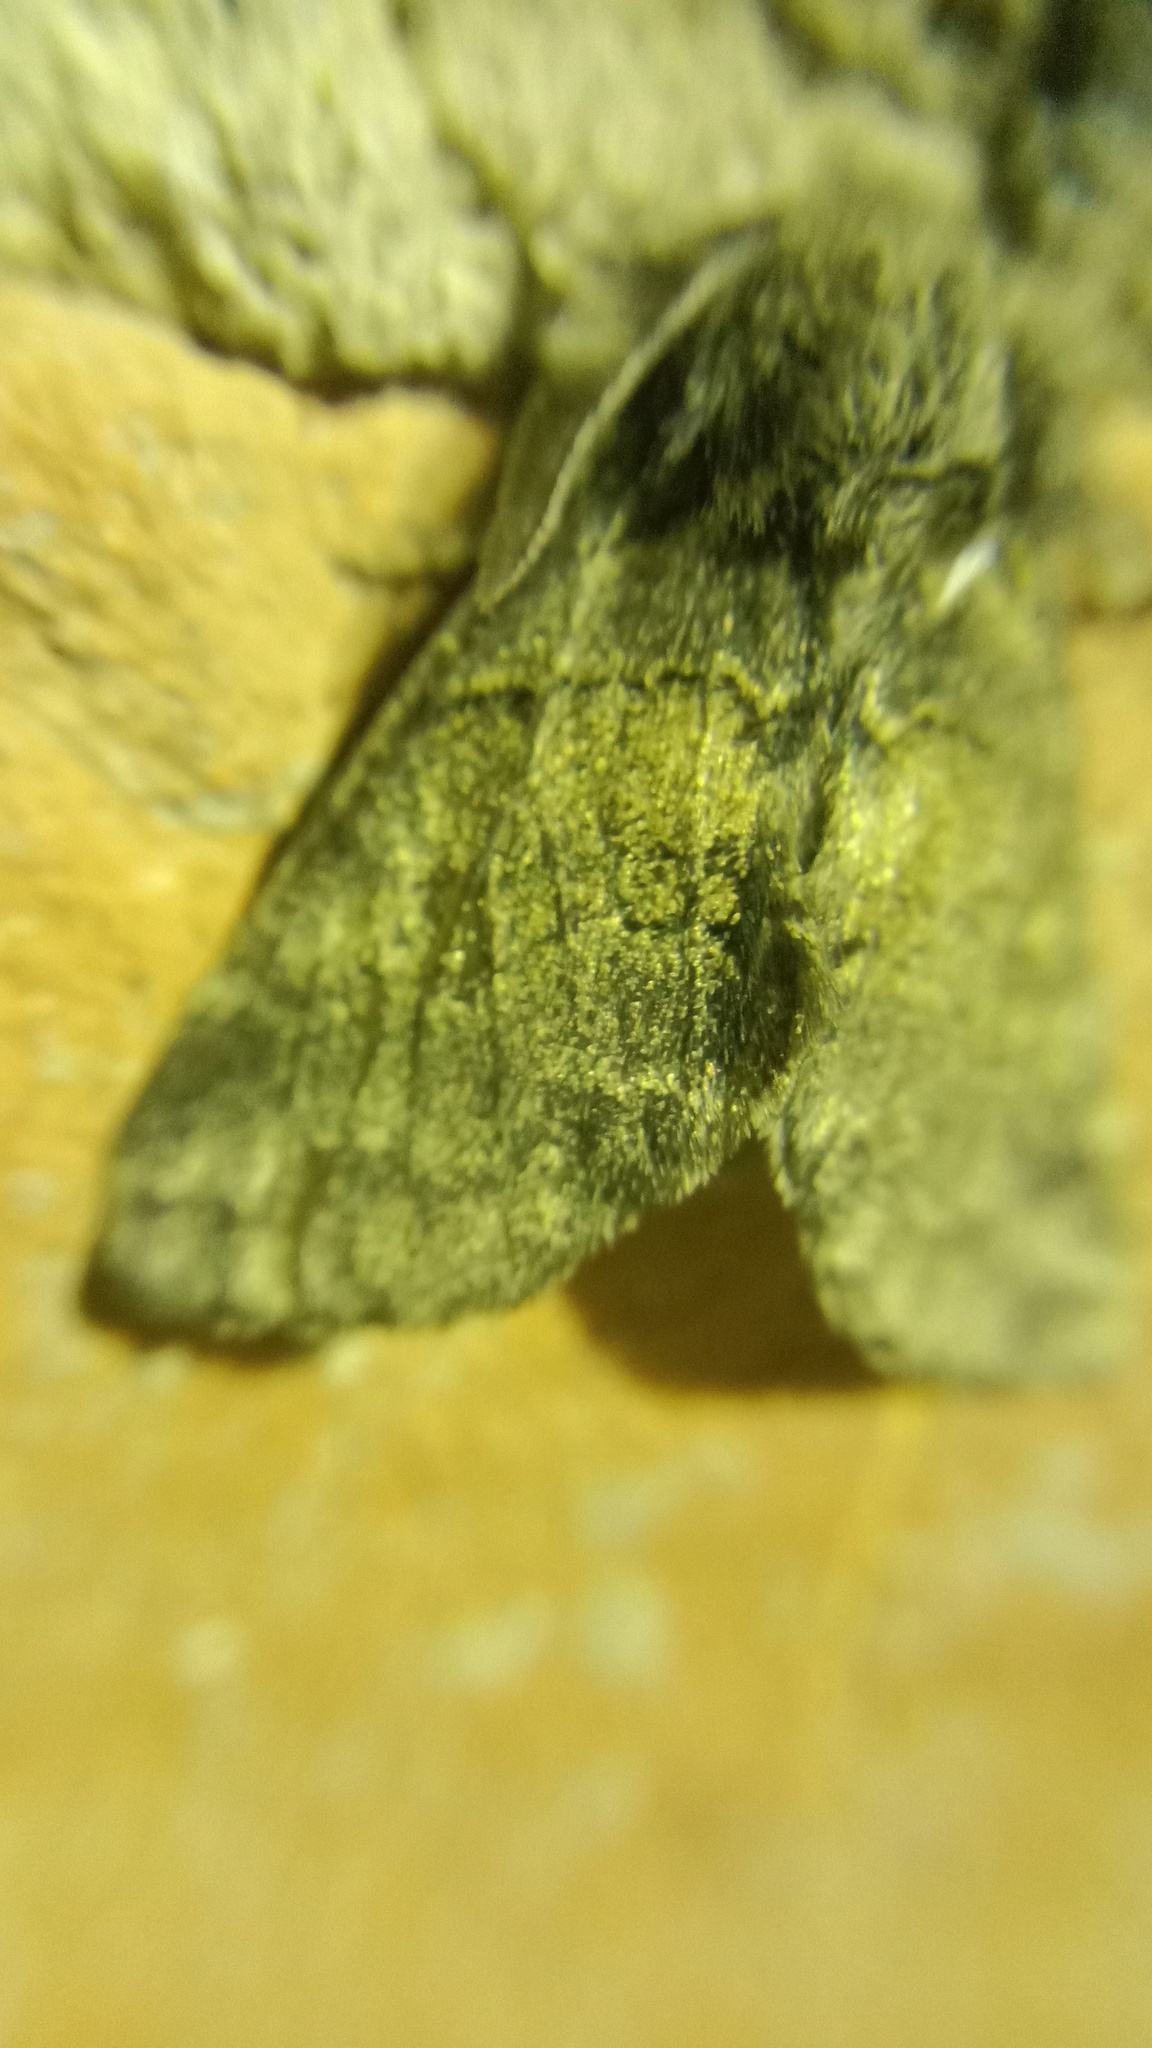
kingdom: Animalia
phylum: Arthropoda
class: Insecta
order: Lepidoptera
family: Notodontidae
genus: Gluphisia
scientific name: Gluphisia crenata
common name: Dusky marbled brown
